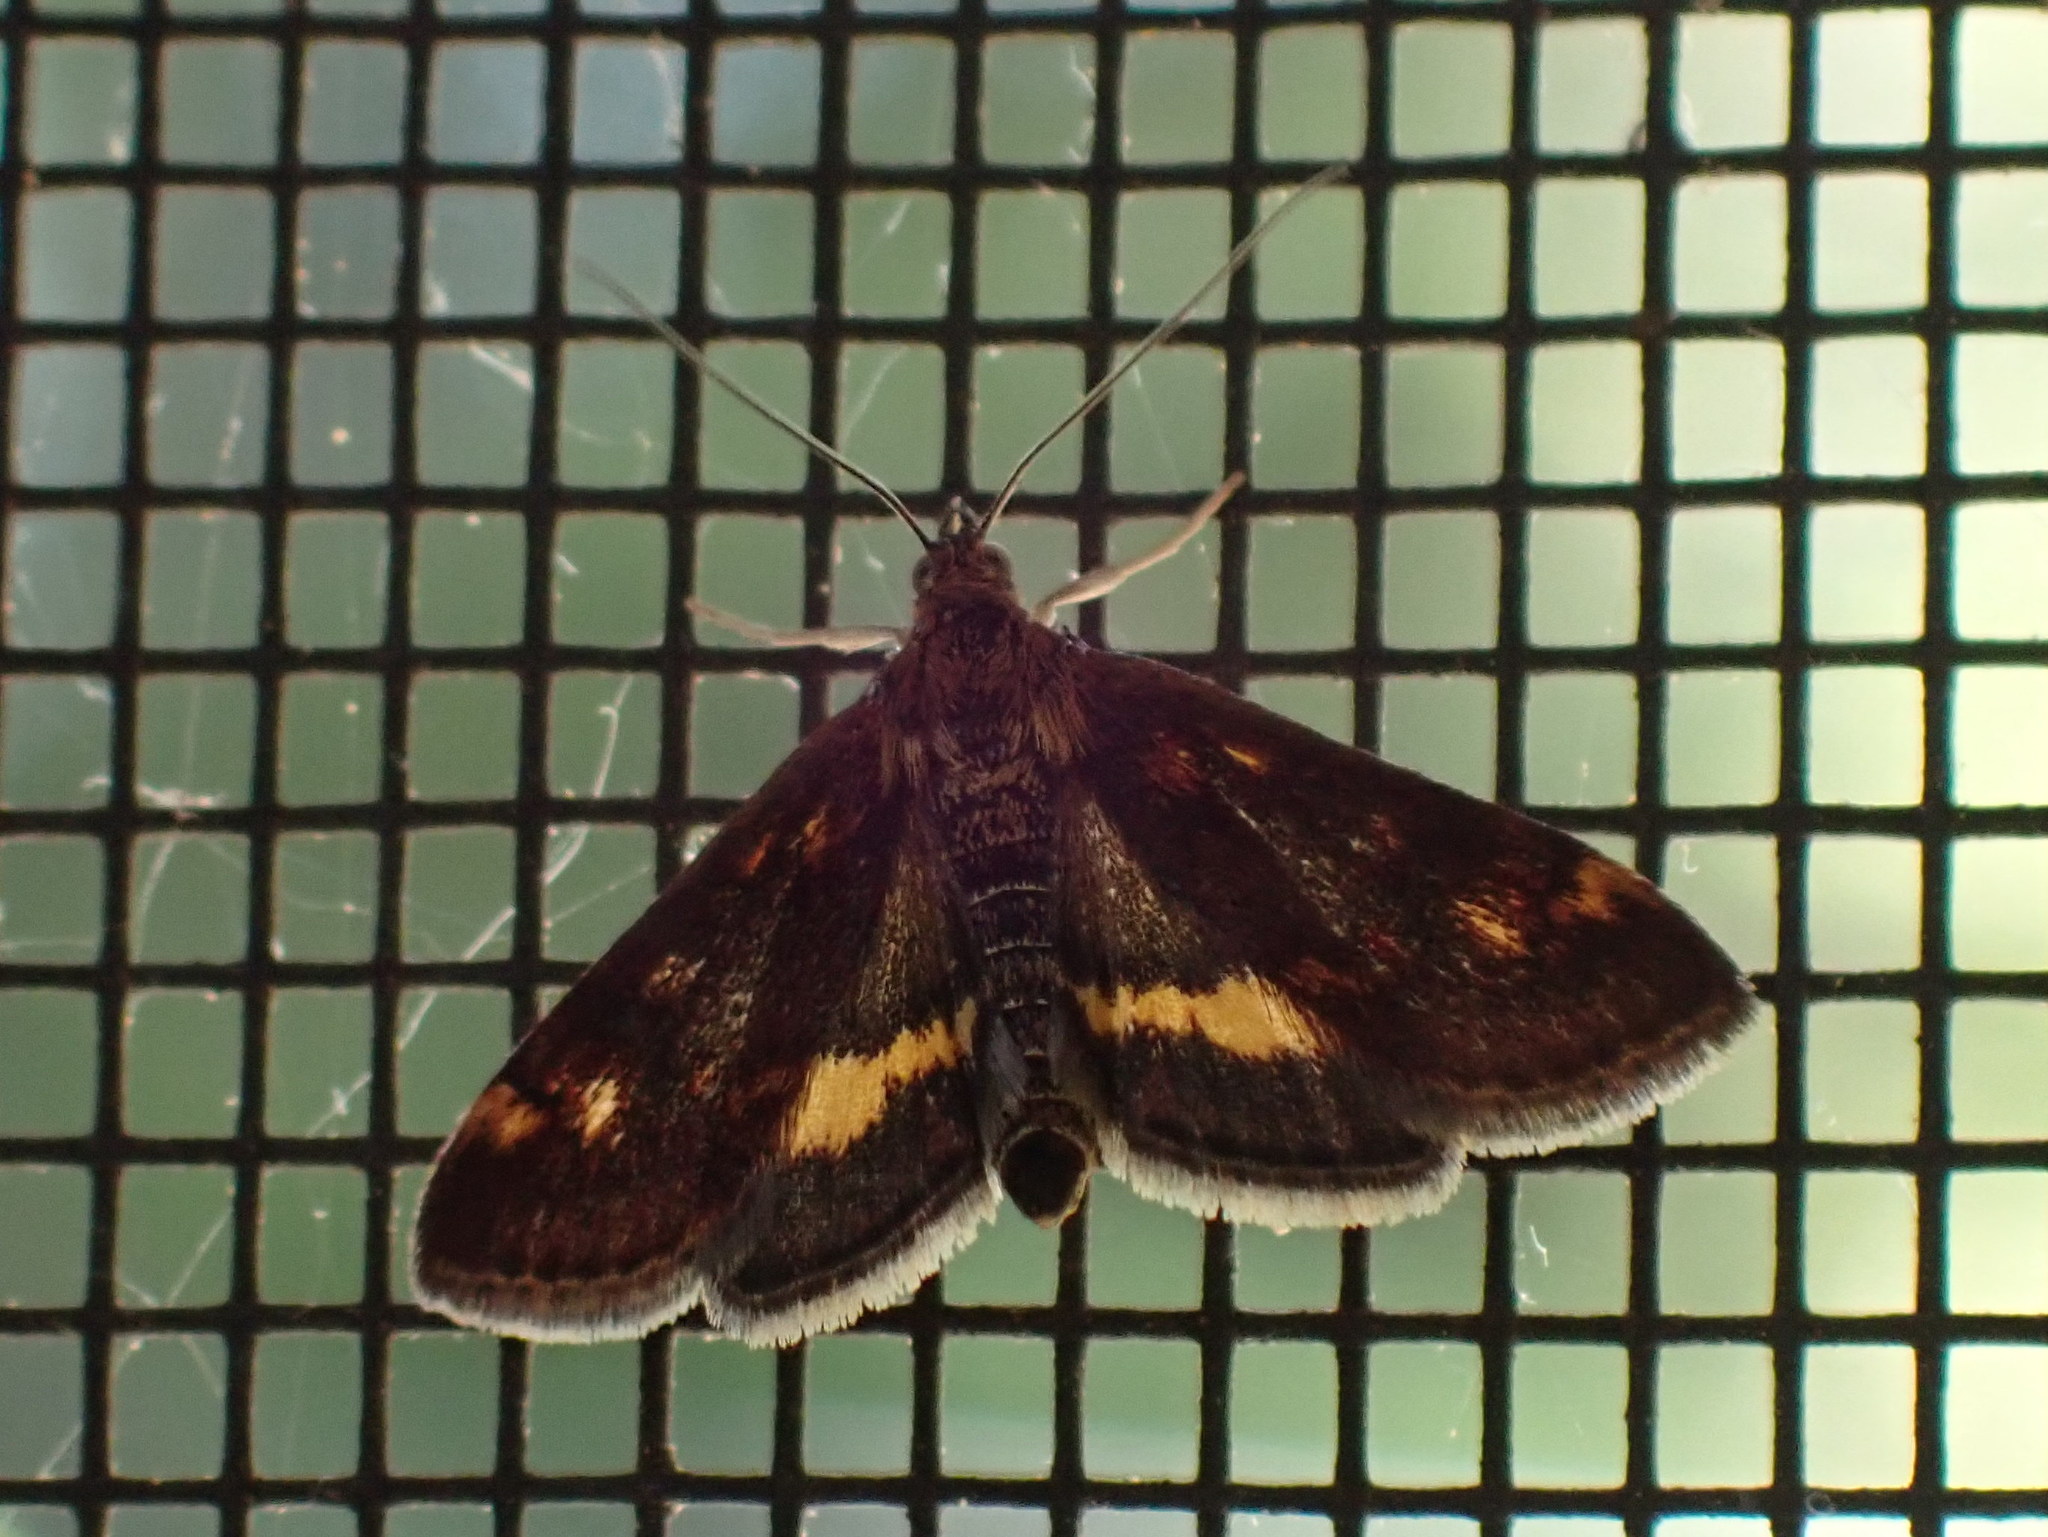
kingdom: Animalia
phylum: Arthropoda
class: Insecta
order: Lepidoptera
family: Crambidae
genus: Pyrausta
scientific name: Pyrausta orphisalis
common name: Orange mint moth
